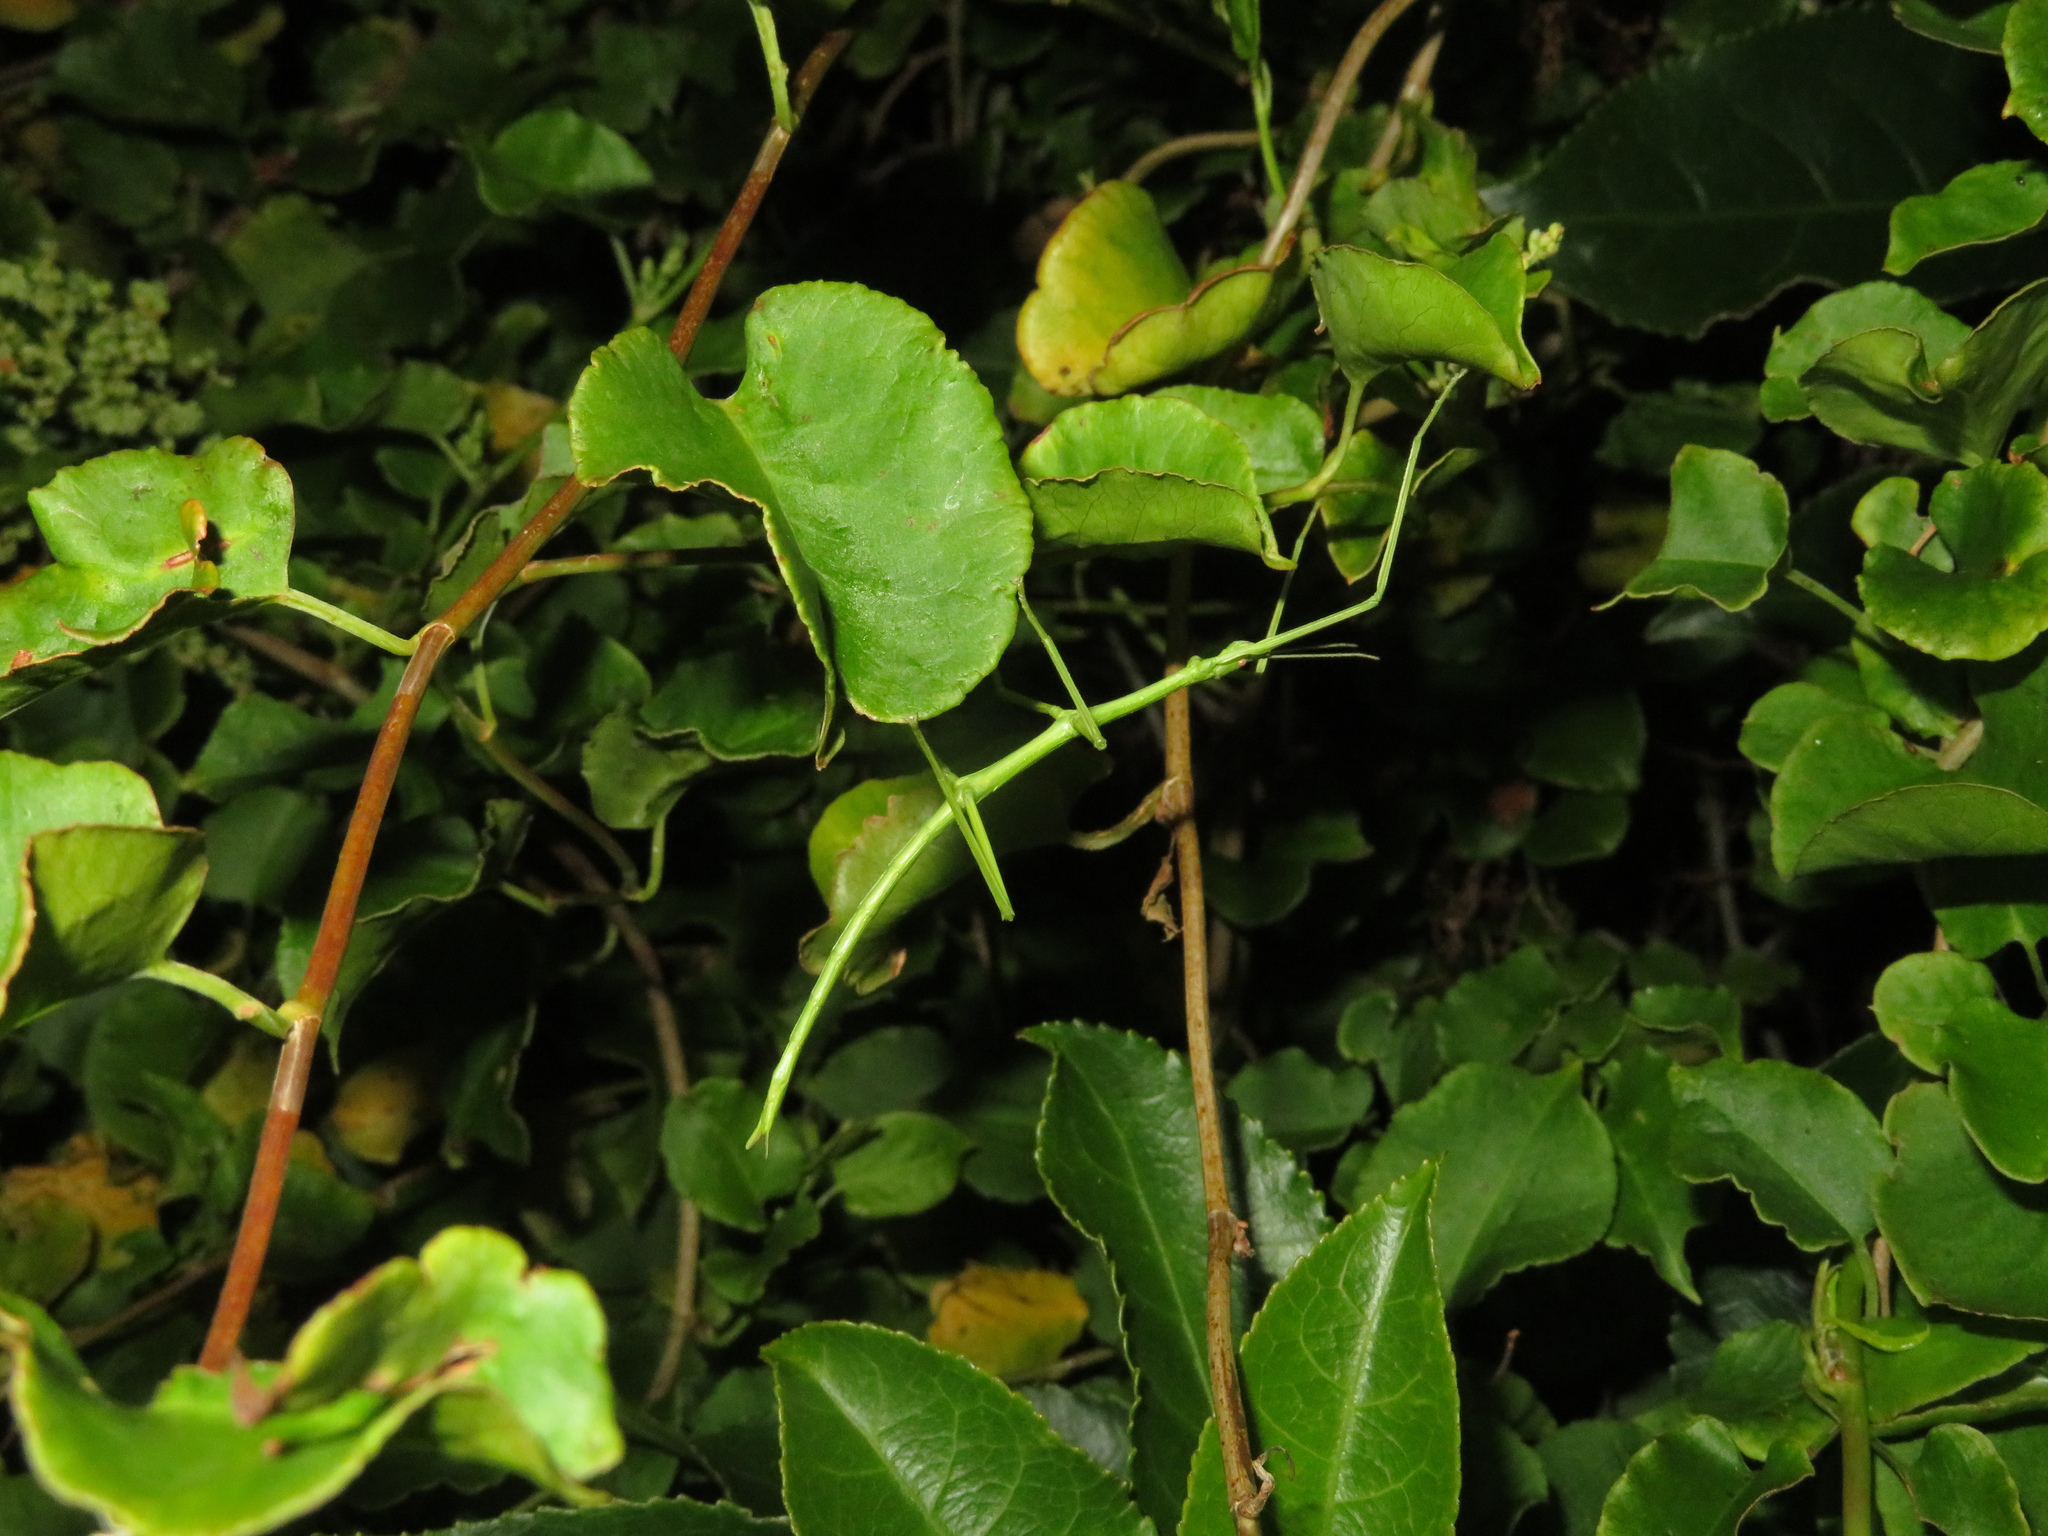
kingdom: Animalia
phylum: Arthropoda
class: Insecta
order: Phasmida
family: Phasmatidae
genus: Clitarchus
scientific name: Clitarchus hookeri
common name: Smooth stick insect
